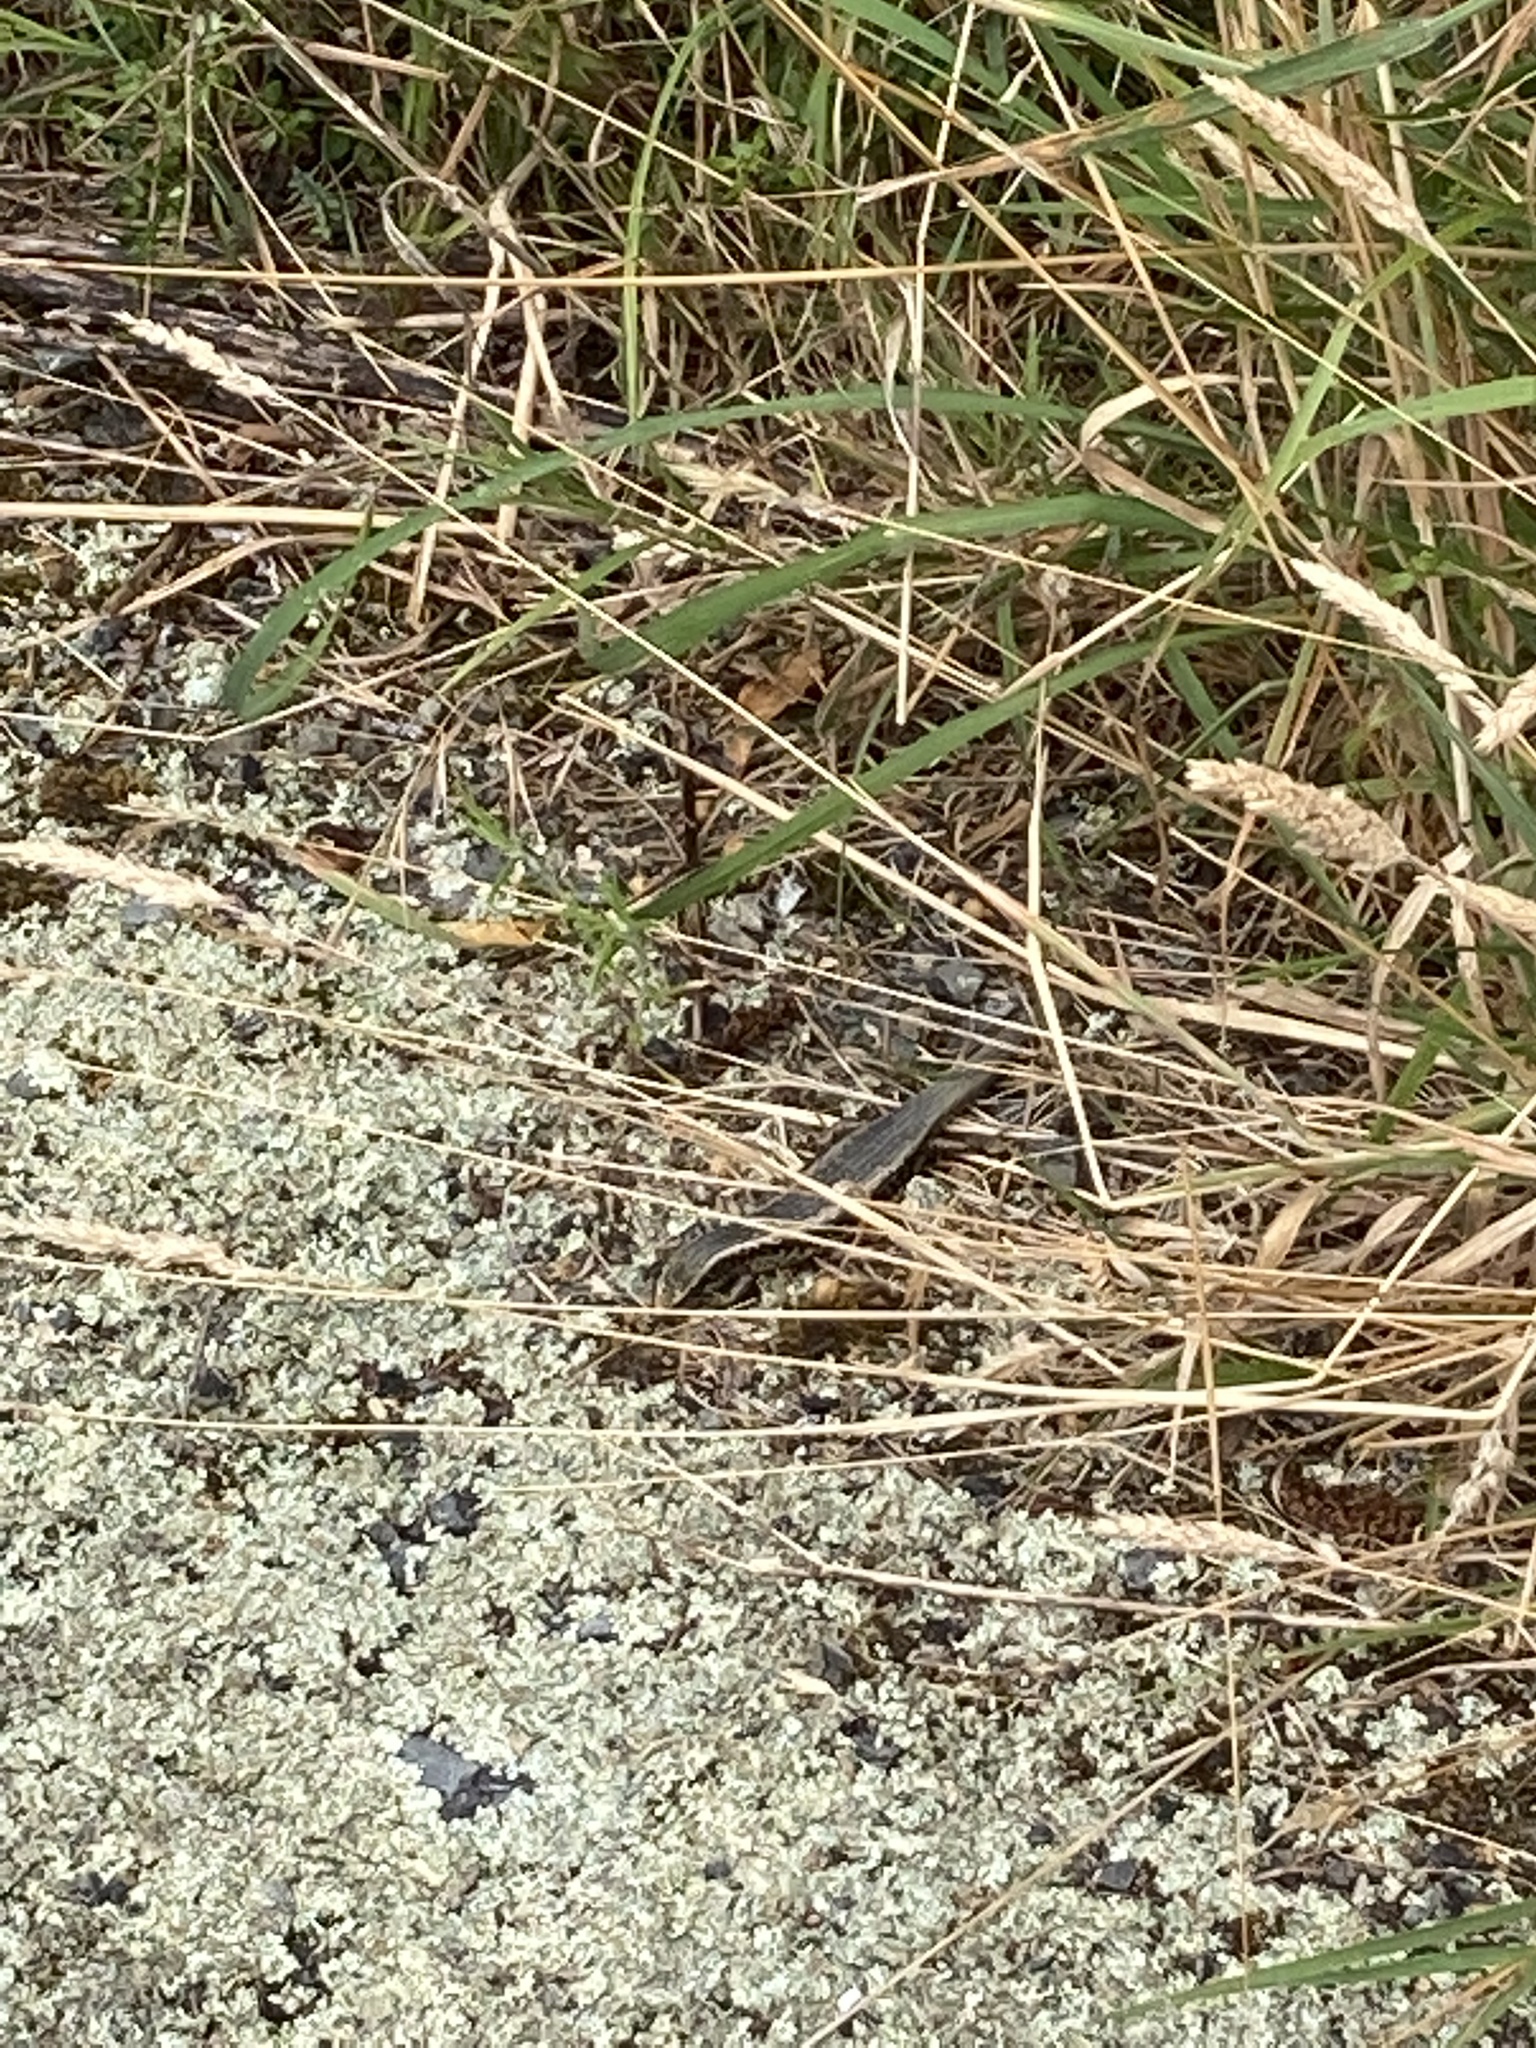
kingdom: Animalia
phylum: Chordata
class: Squamata
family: Scincidae
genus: Oligosoma
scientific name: Oligosoma kokowai
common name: Northern spotted skink
